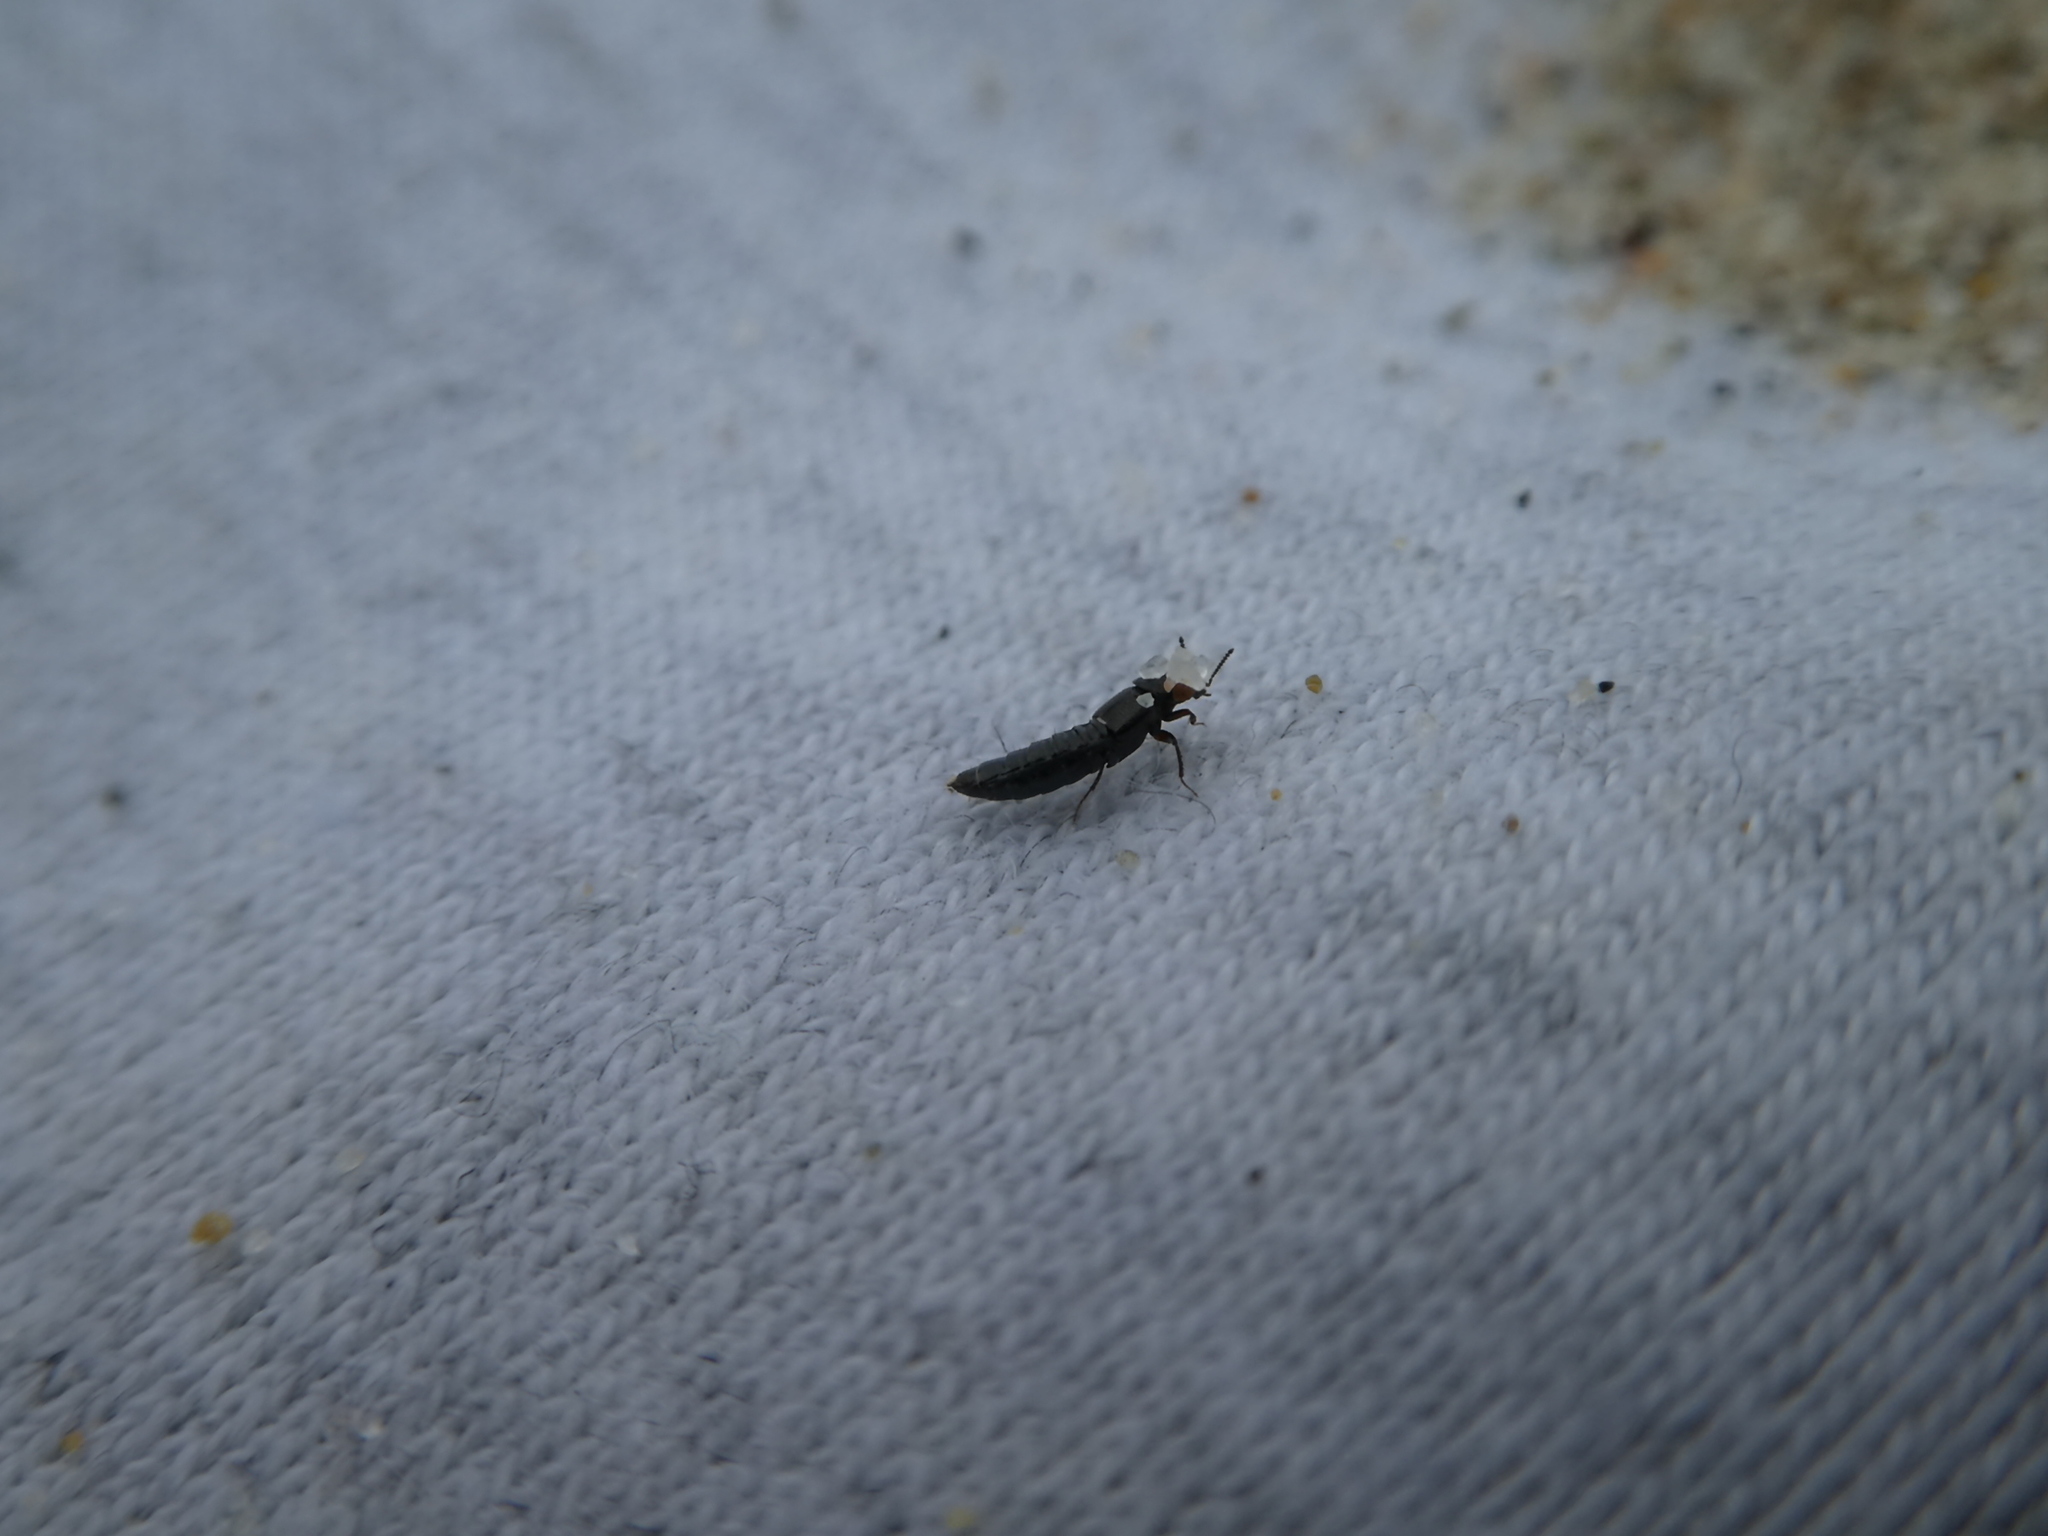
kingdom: Animalia
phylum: Arthropoda
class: Insecta
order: Coleoptera
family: Staphylinidae
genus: Aleochara
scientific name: Aleochara sulcicollis
